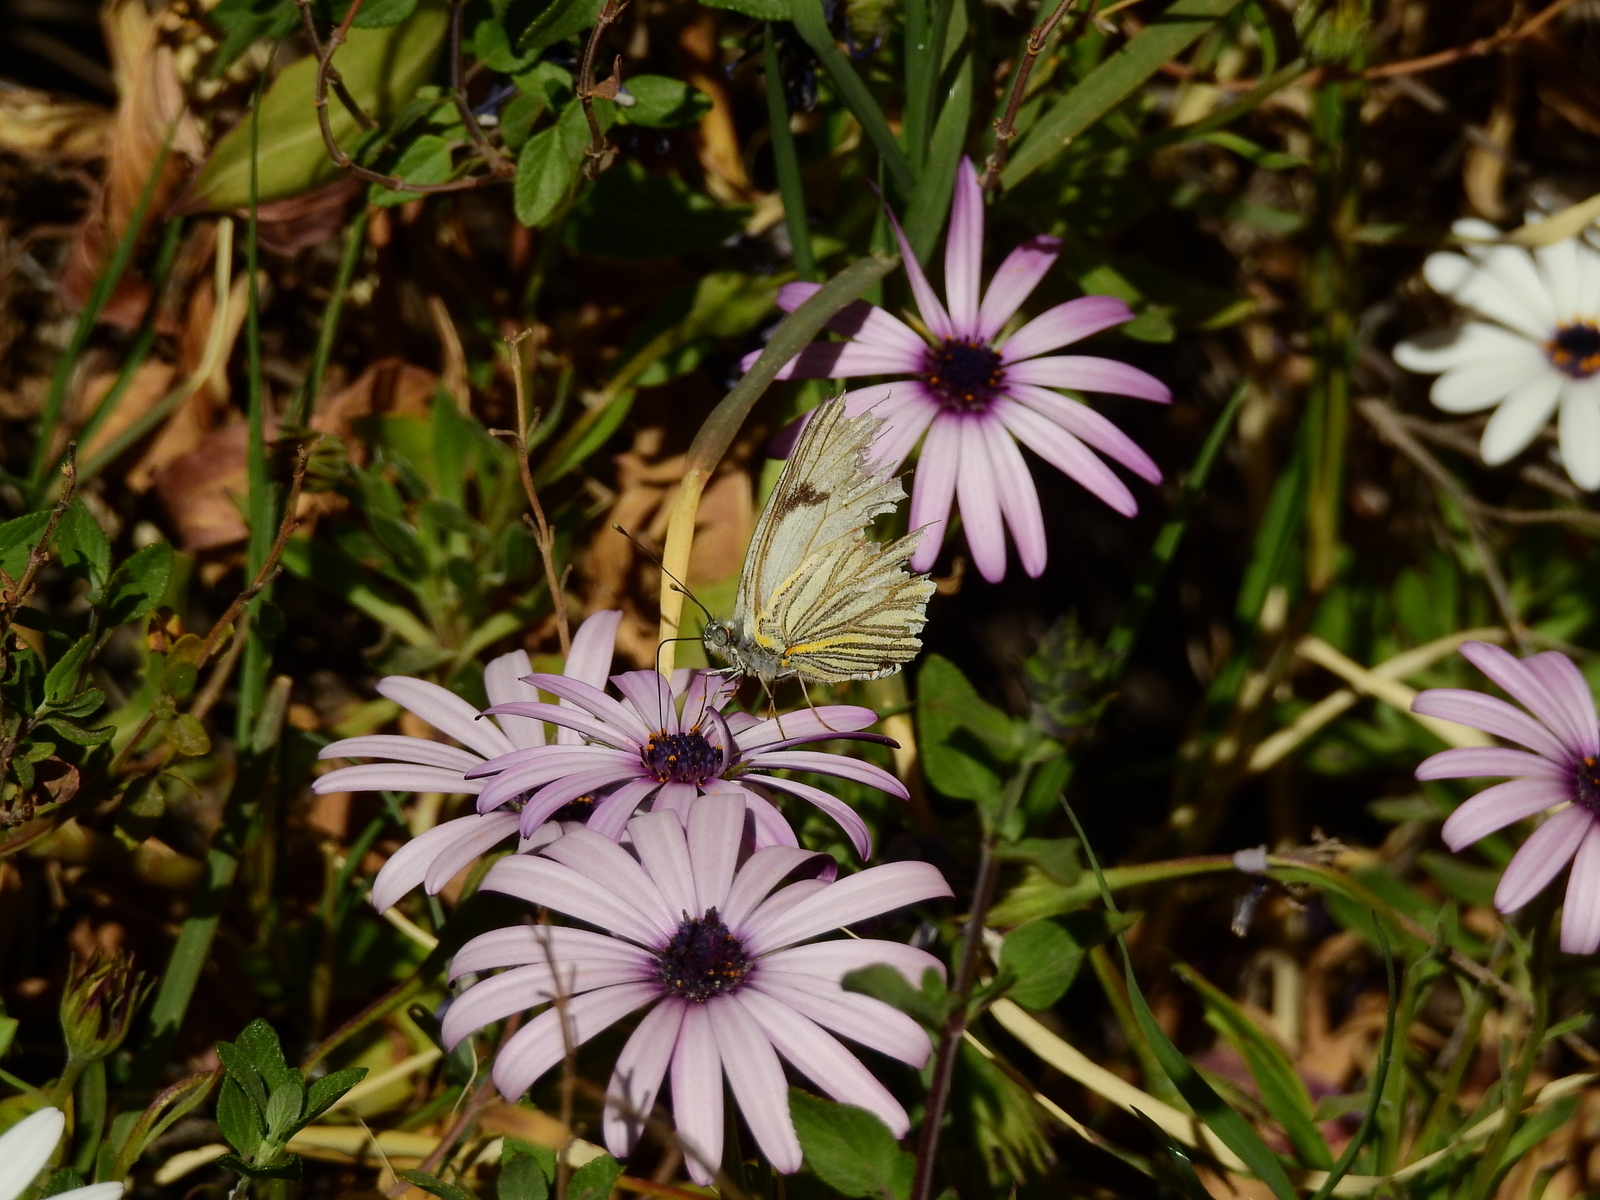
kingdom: Animalia
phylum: Arthropoda
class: Insecta
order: Lepidoptera
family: Pieridae
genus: Tatochila
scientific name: Tatochila mercedis
